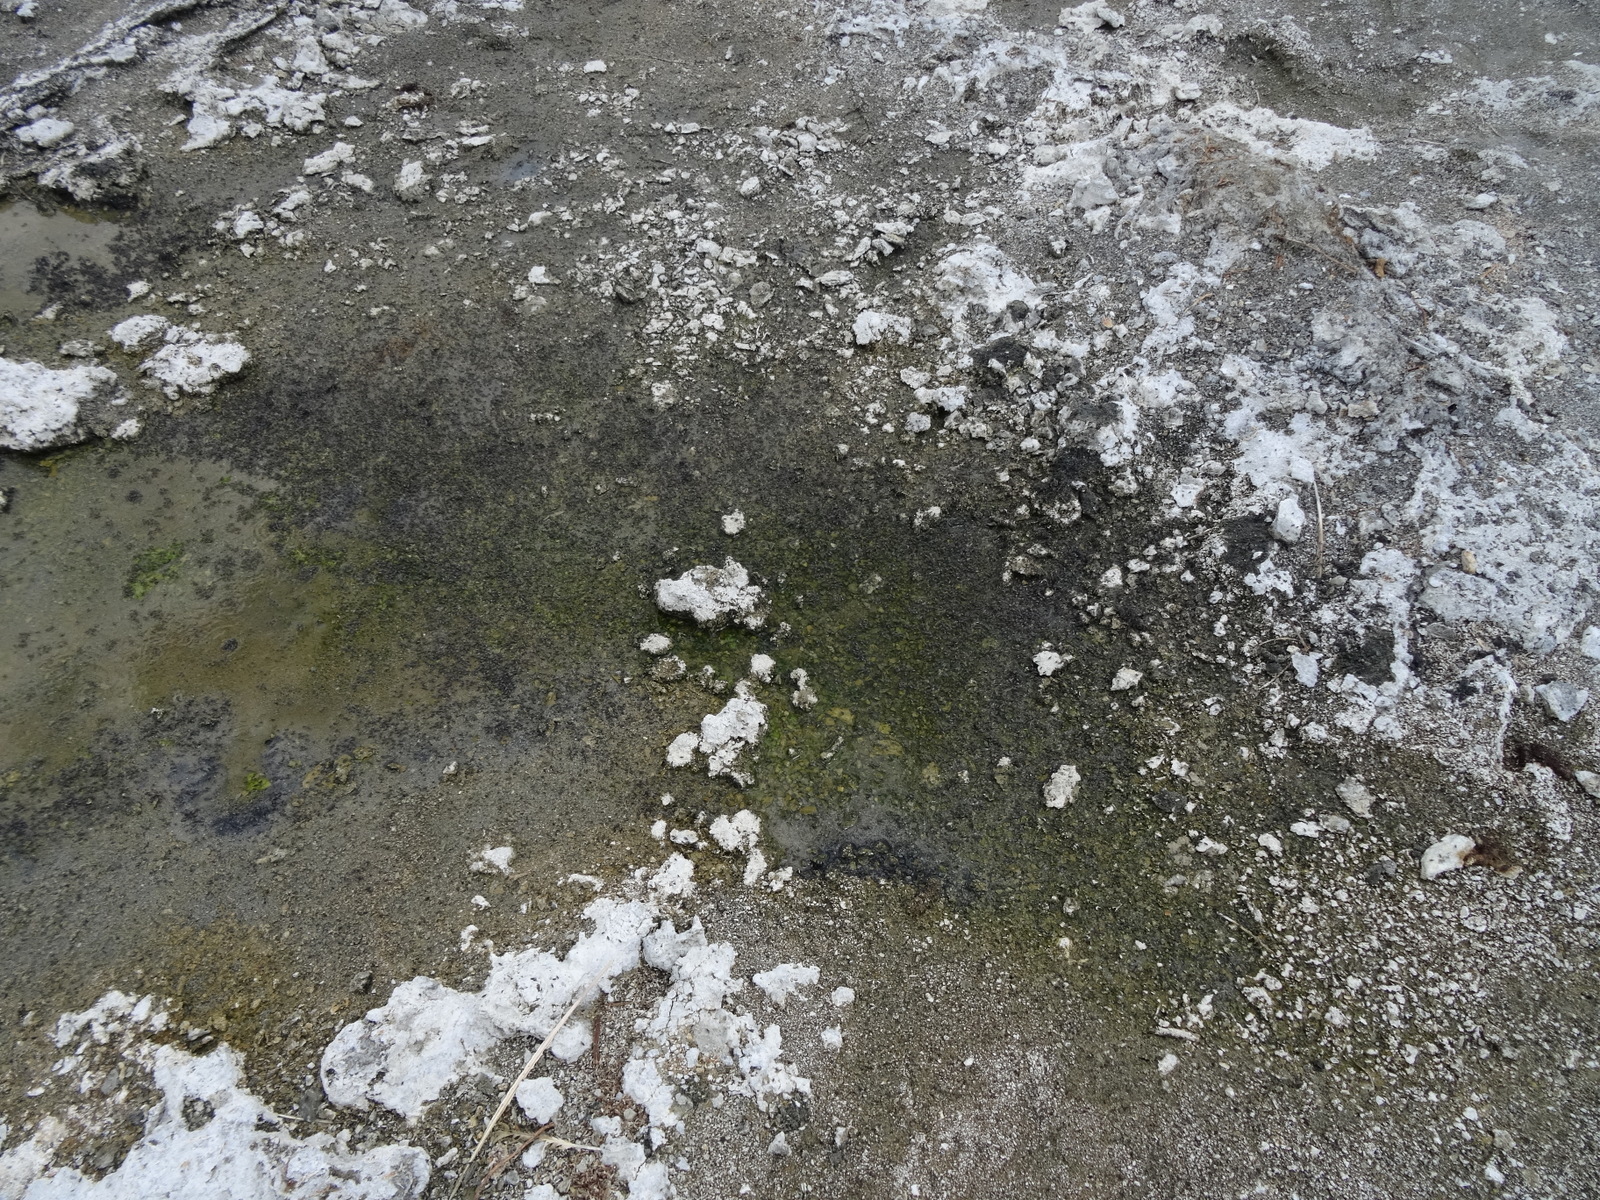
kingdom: Animalia
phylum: Arthropoda
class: Insecta
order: Diptera
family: Ephydridae
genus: Cirrula
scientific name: Cirrula hians
